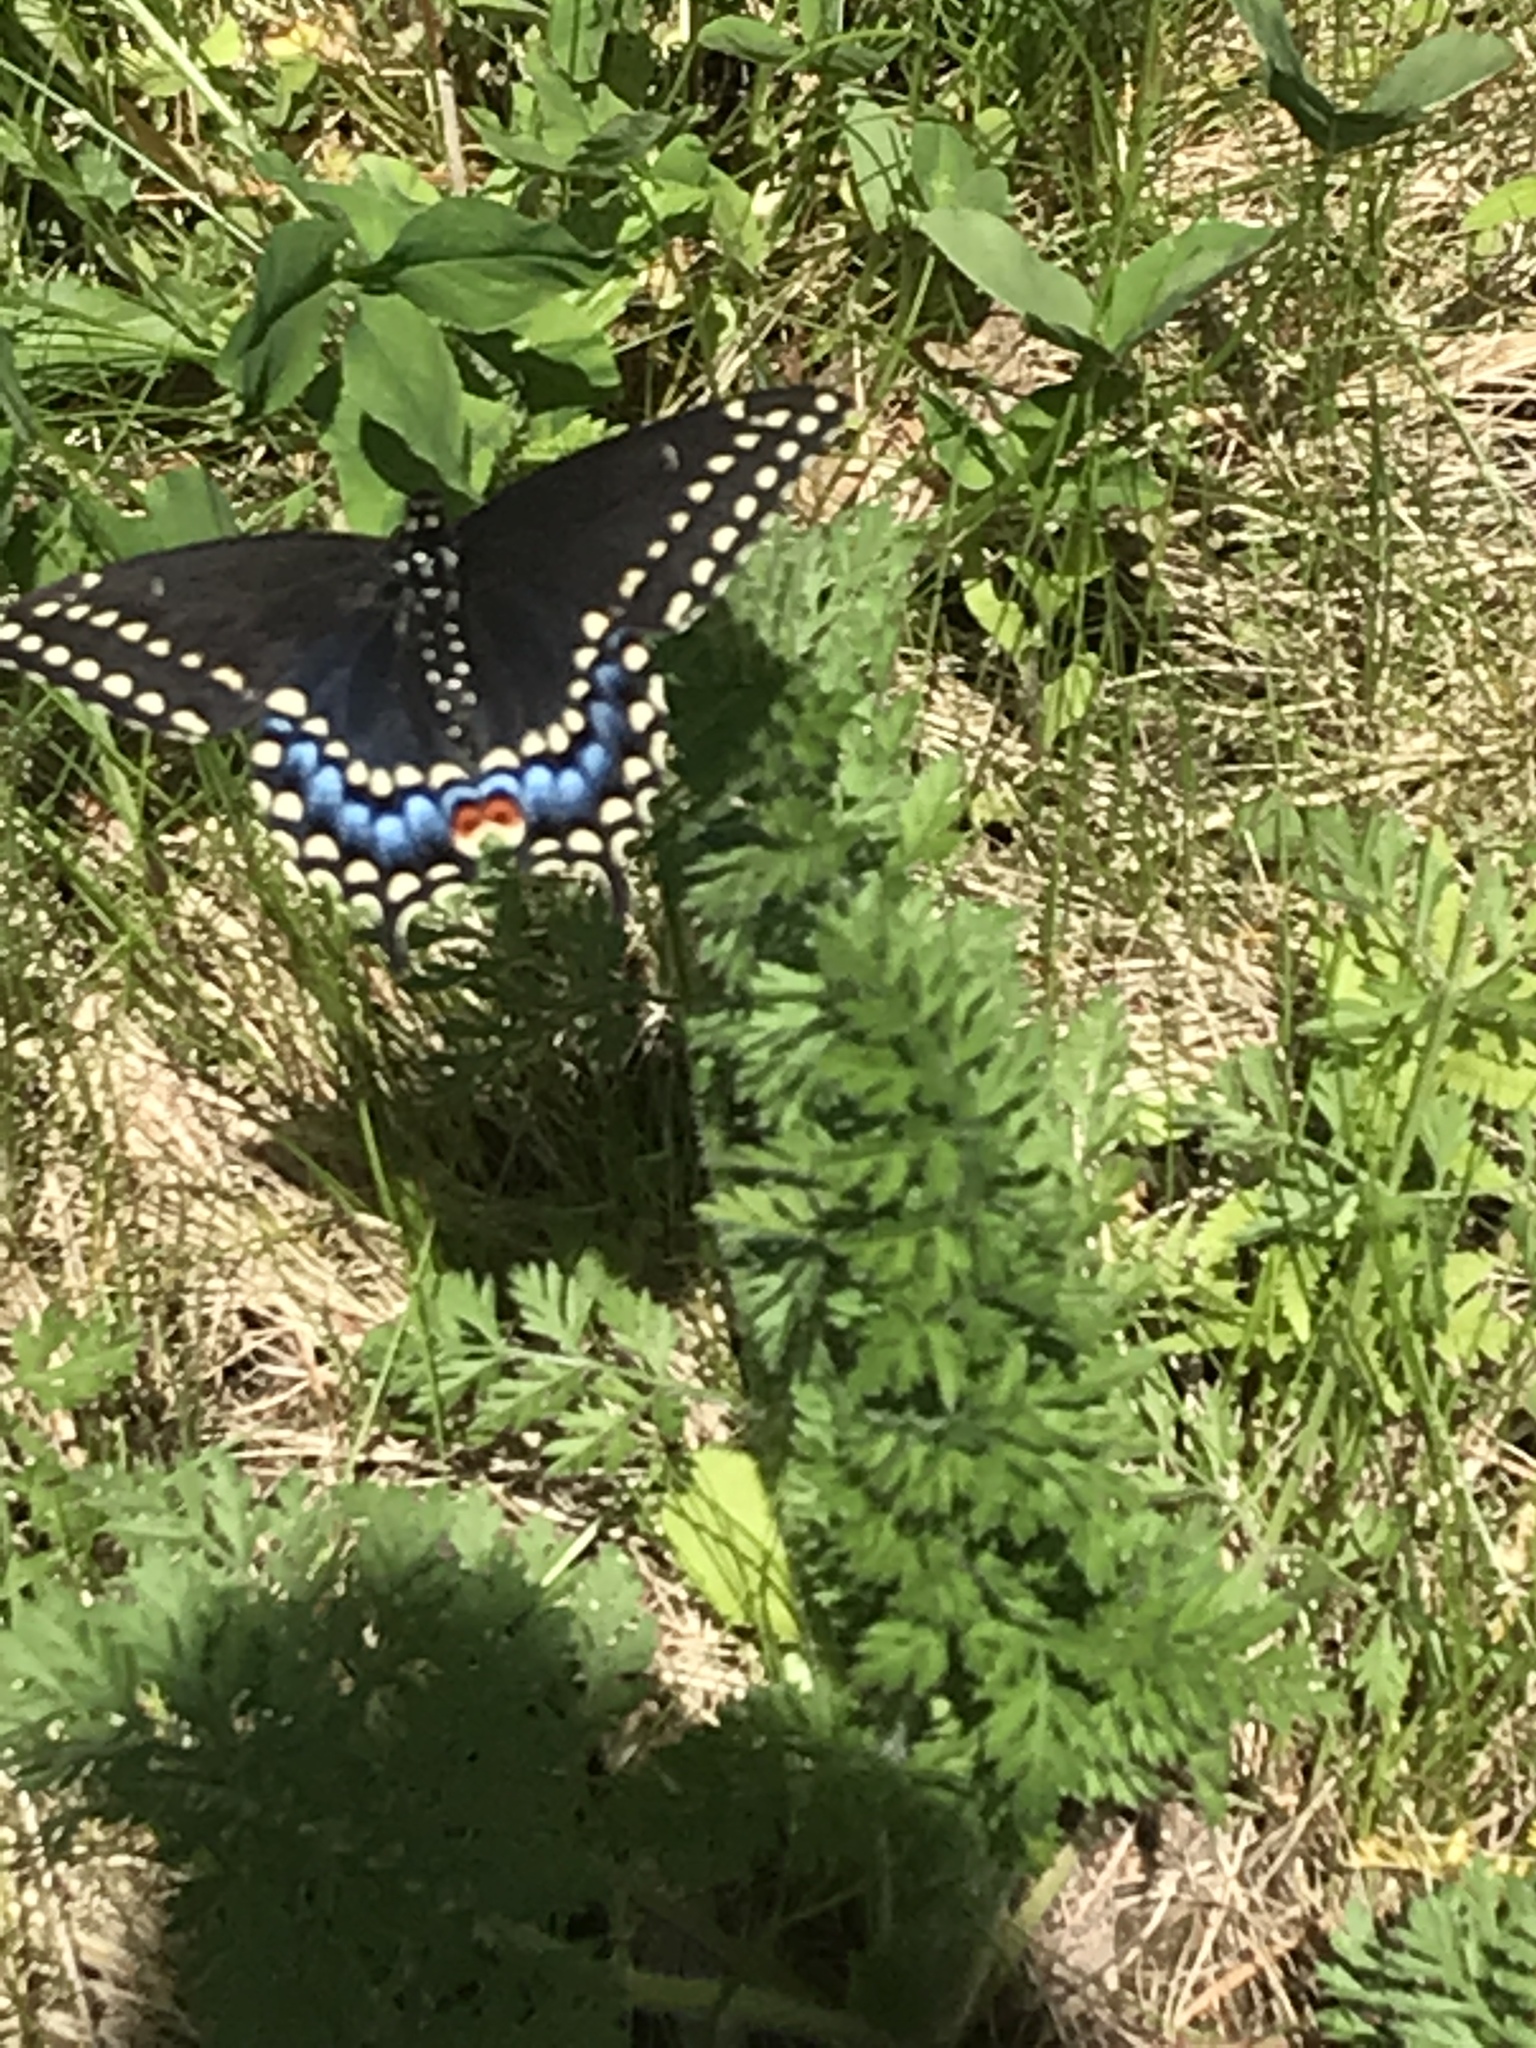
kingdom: Animalia
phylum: Arthropoda
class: Insecta
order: Lepidoptera
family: Papilionidae
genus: Papilio
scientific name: Papilio polyxenes
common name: Black swallowtail
